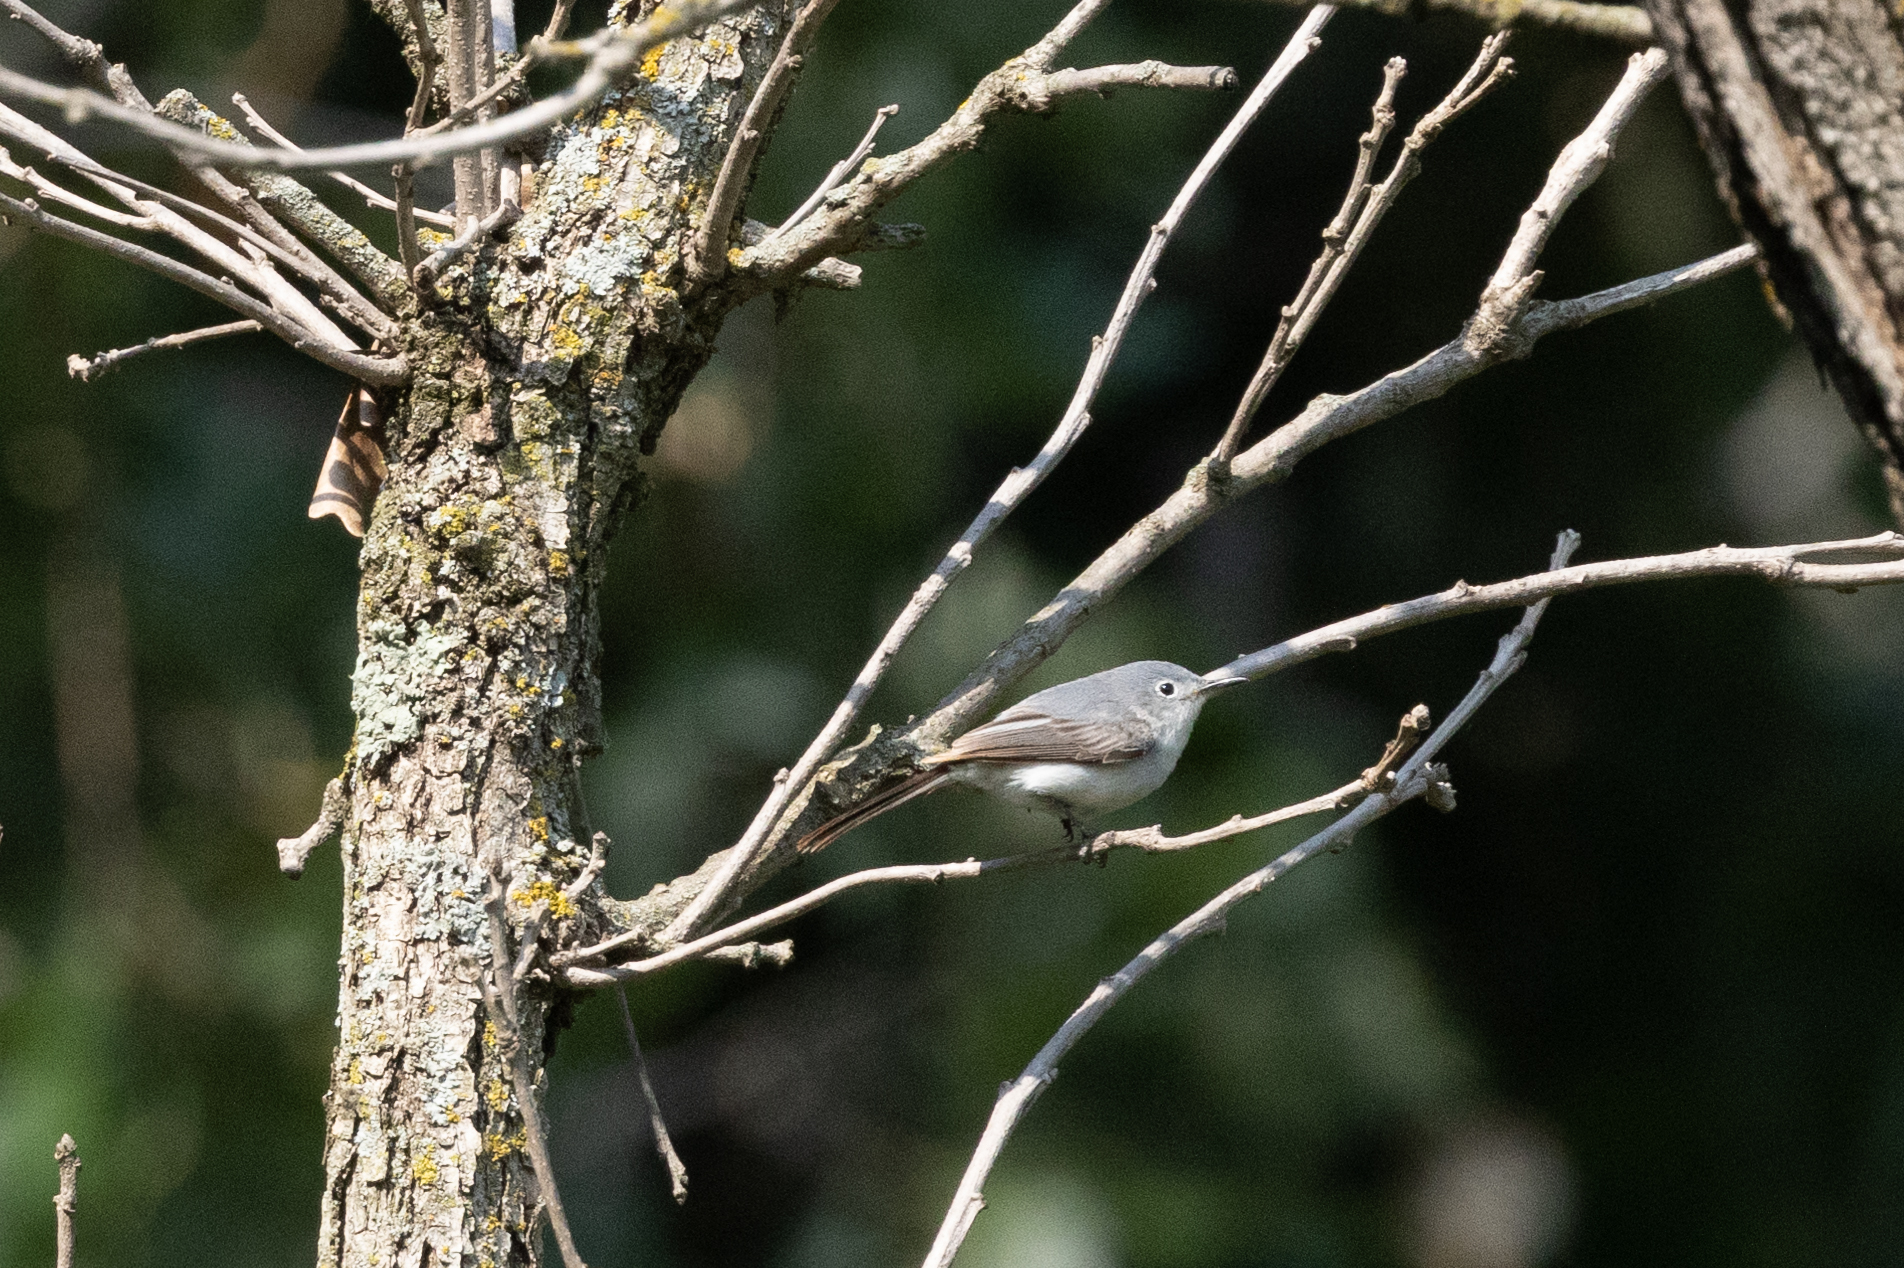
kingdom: Animalia
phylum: Chordata
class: Aves
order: Passeriformes
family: Polioptilidae
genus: Polioptila
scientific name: Polioptila caerulea
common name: Blue-gray gnatcatcher
